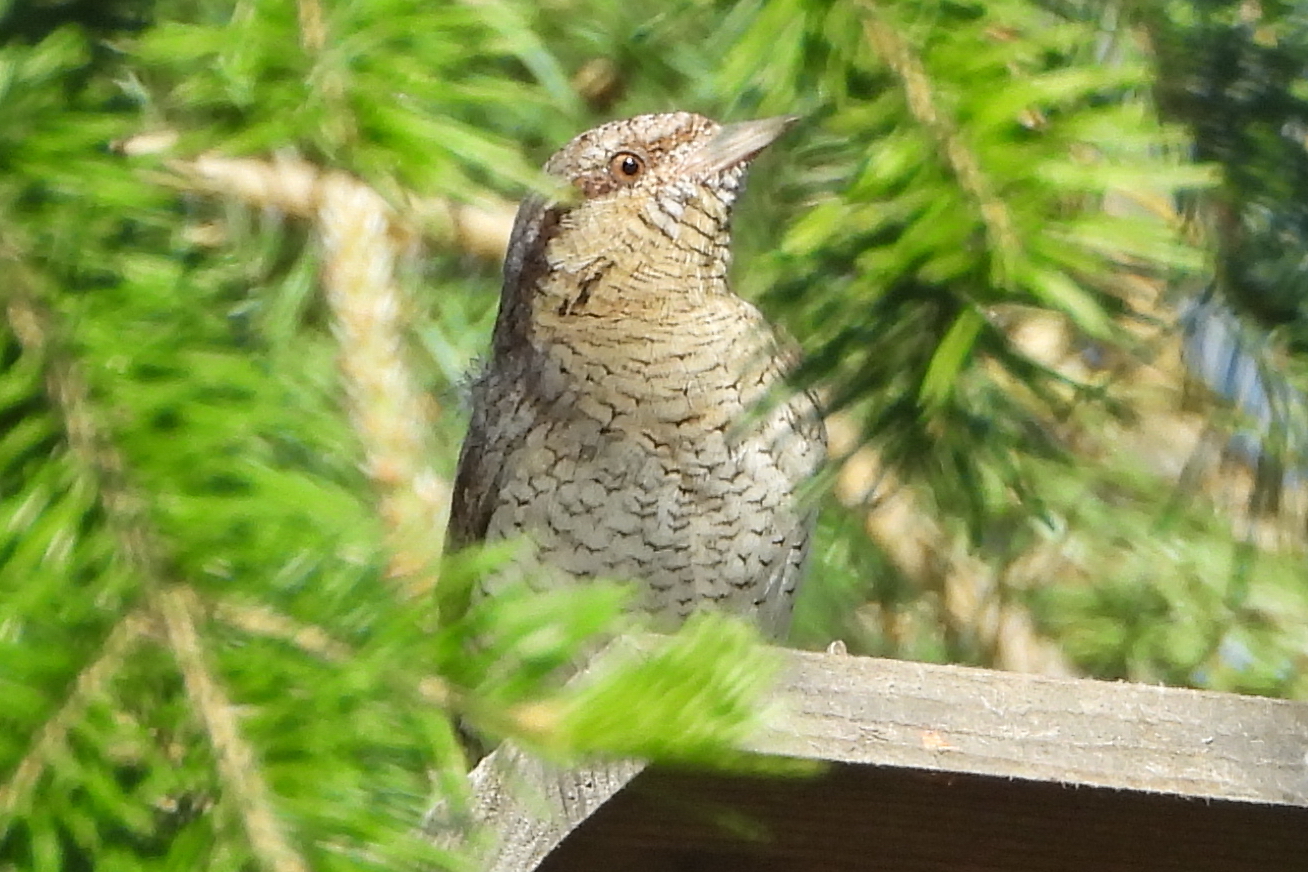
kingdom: Animalia
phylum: Chordata
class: Aves
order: Piciformes
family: Picidae
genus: Jynx
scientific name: Jynx torquilla
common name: Eurasian wryneck
